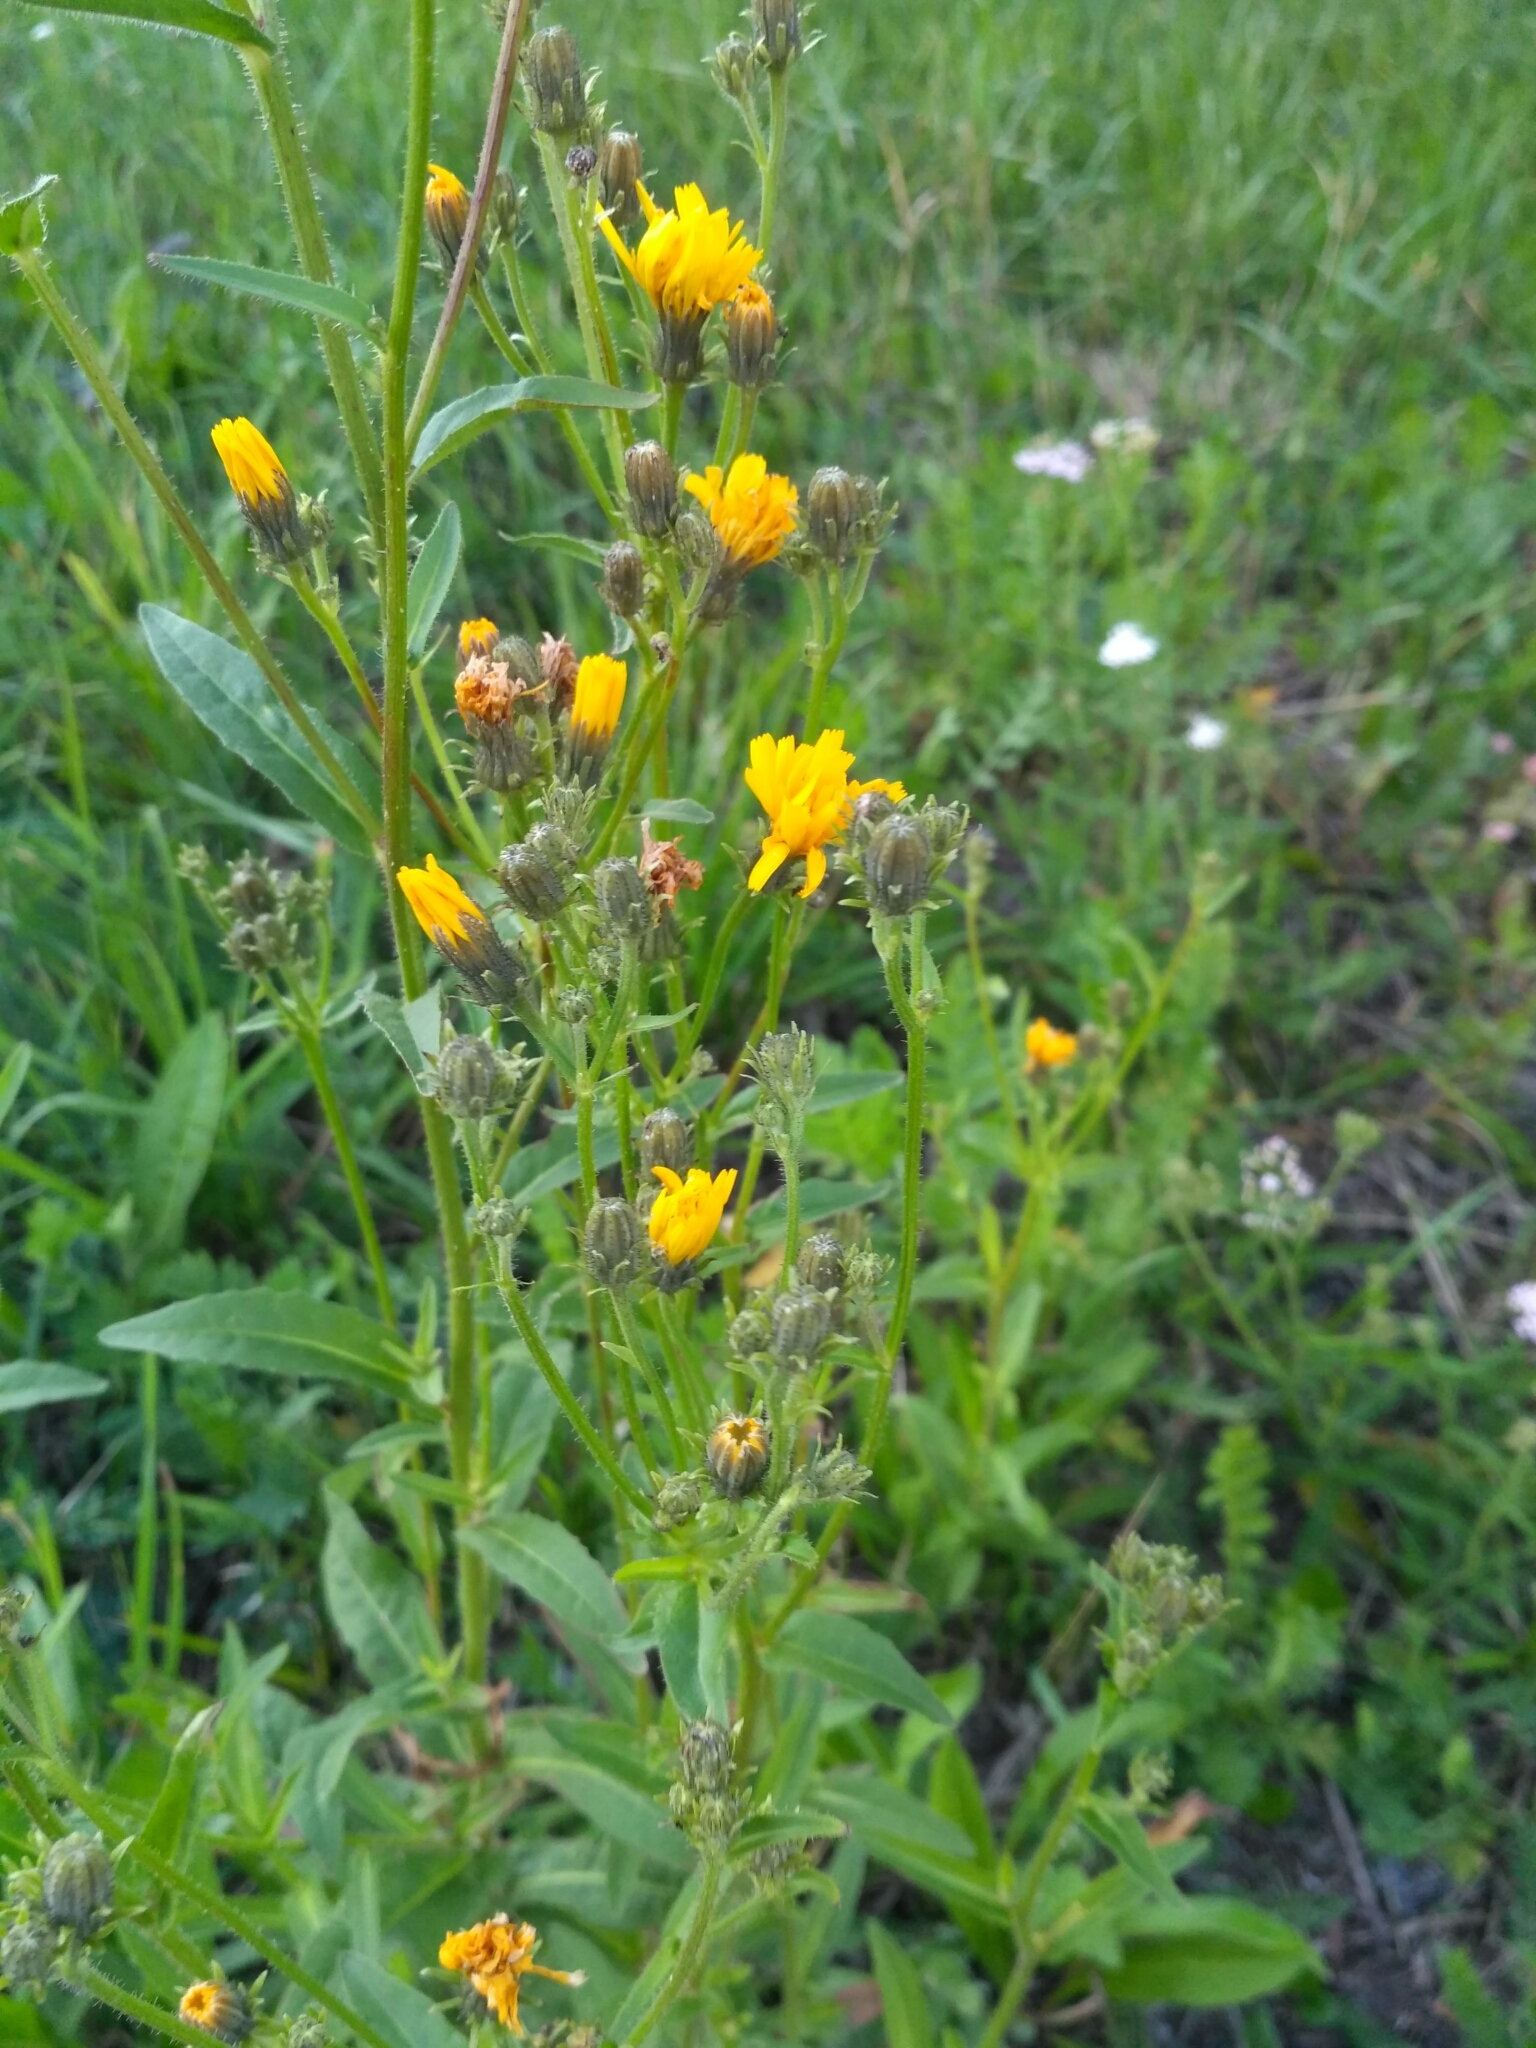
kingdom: Plantae
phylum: Tracheophyta
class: Magnoliopsida
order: Asterales
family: Asteraceae
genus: Picris
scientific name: Picris hieracioides
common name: Hawkweed oxtongue
